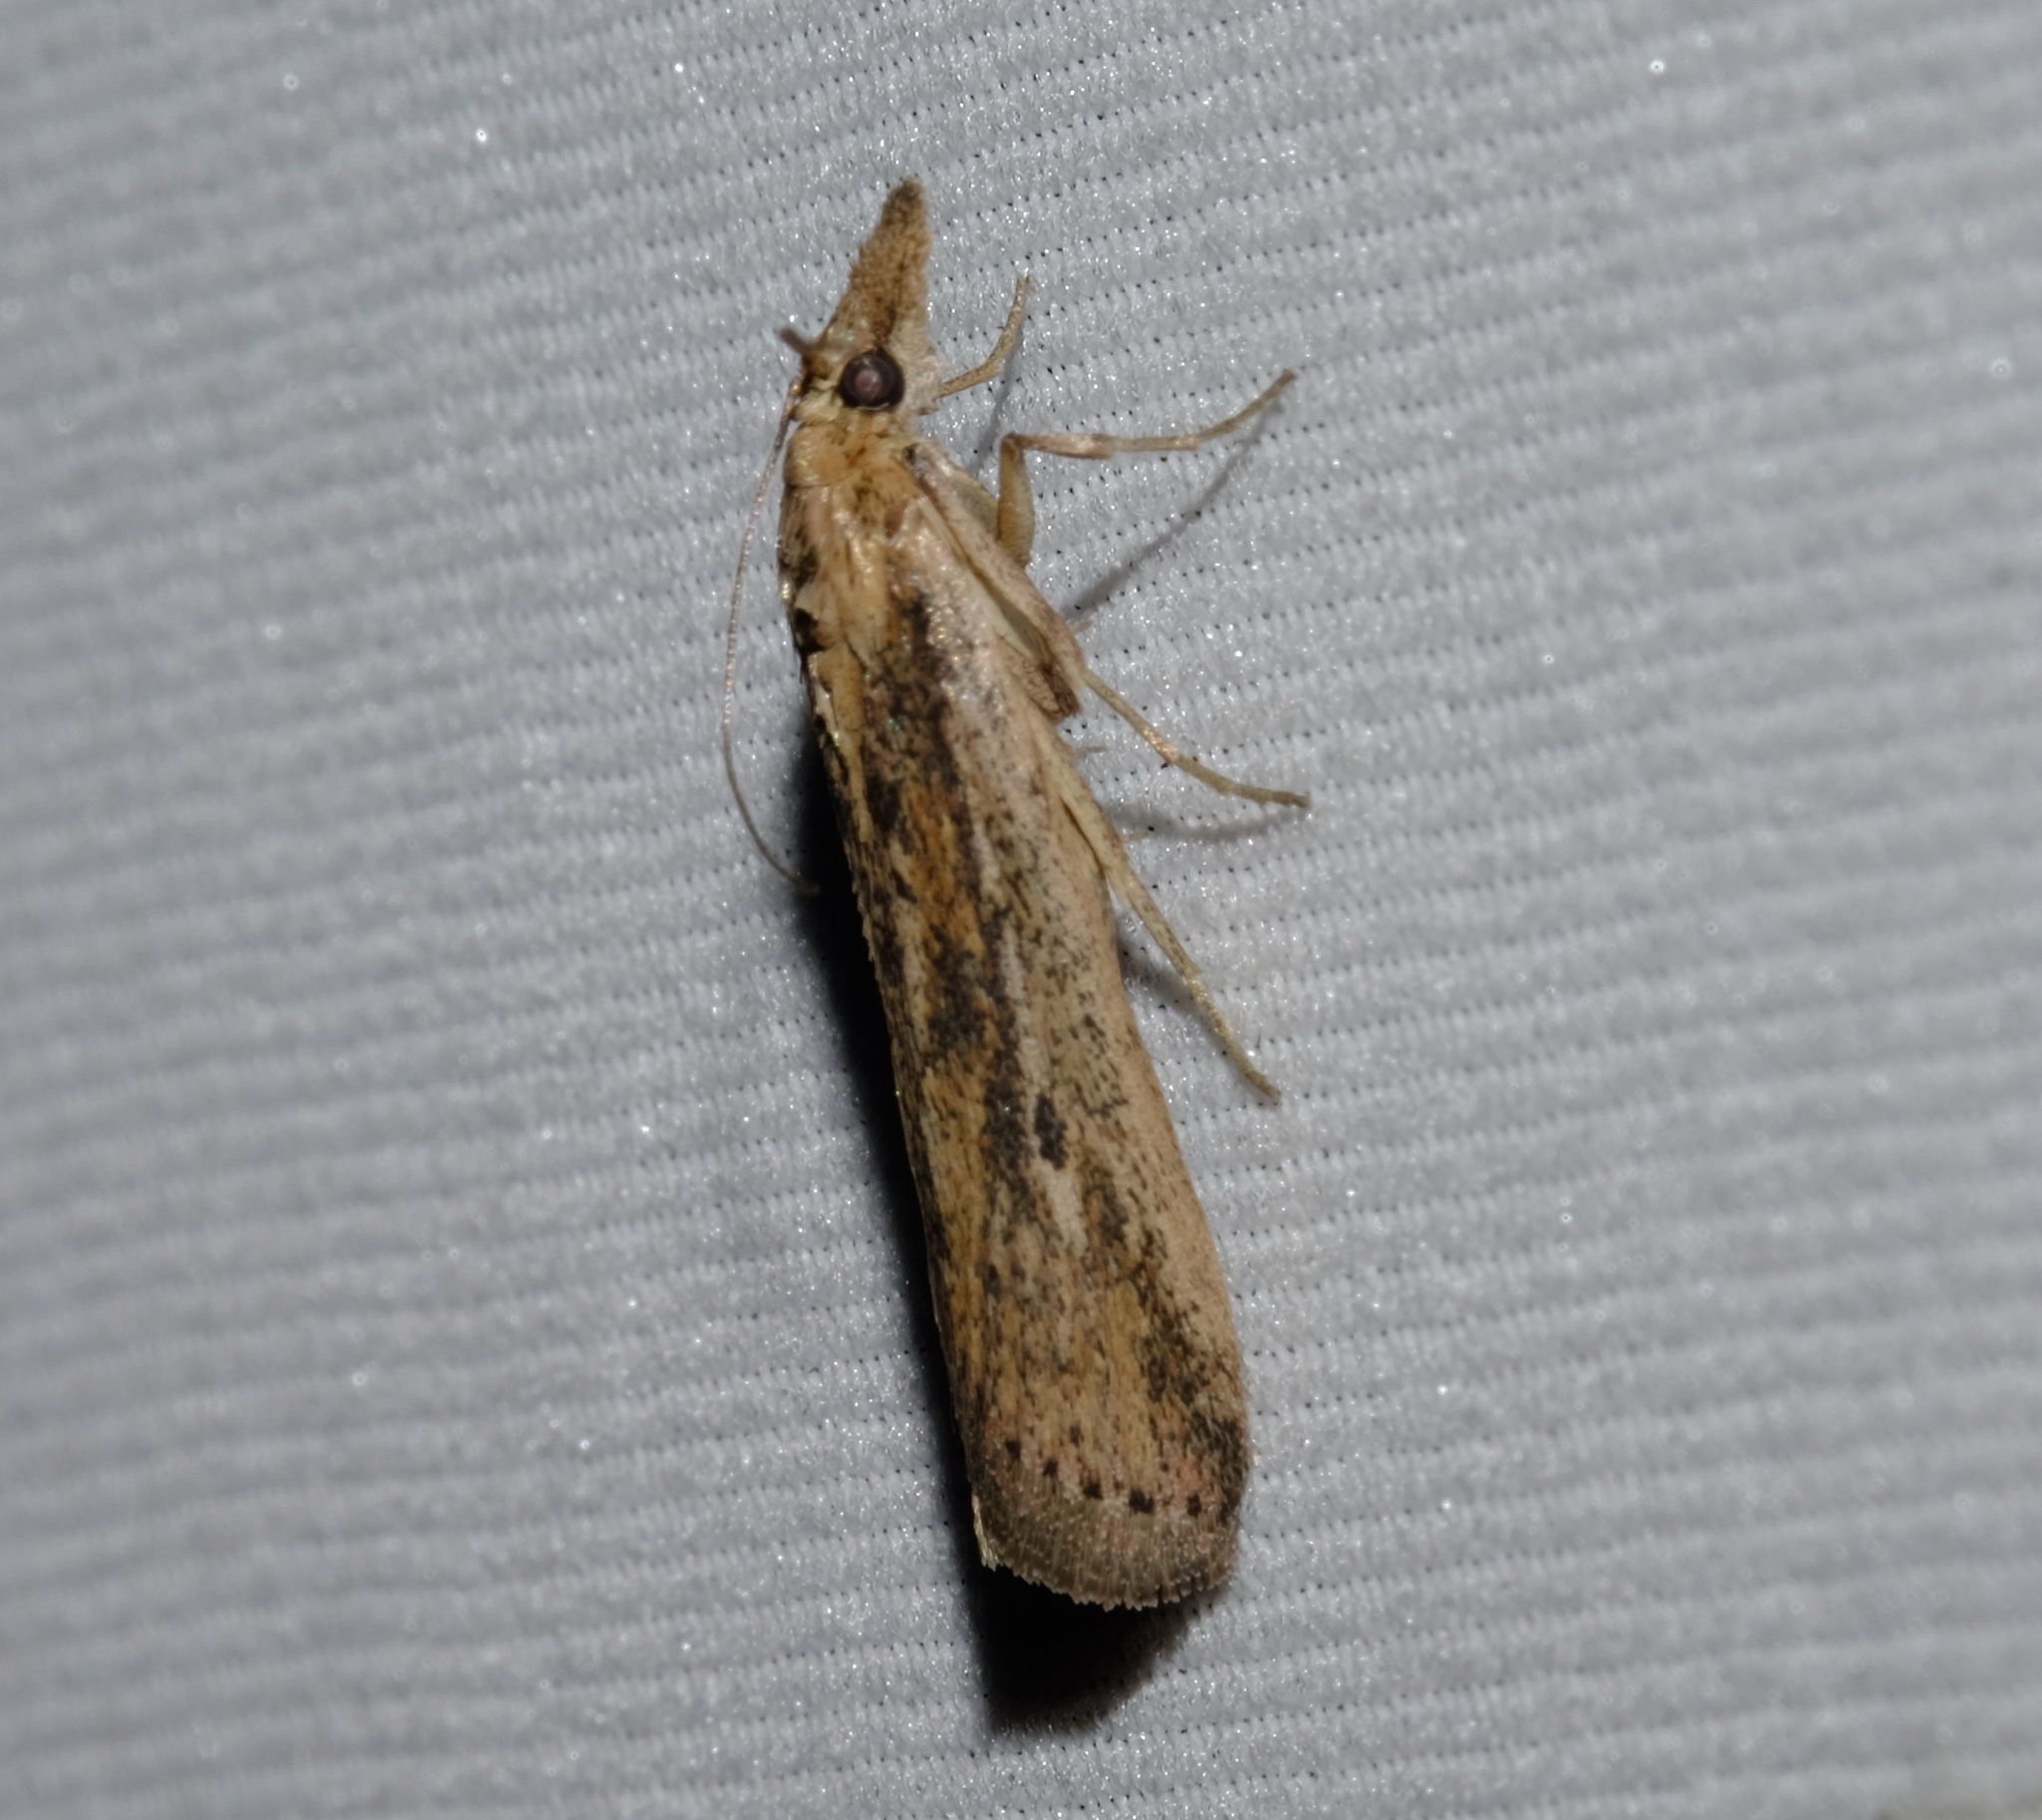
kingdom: Animalia
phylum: Arthropoda
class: Insecta
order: Lepidoptera
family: Pyralidae
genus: Faveria
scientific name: Faveria tritalis
